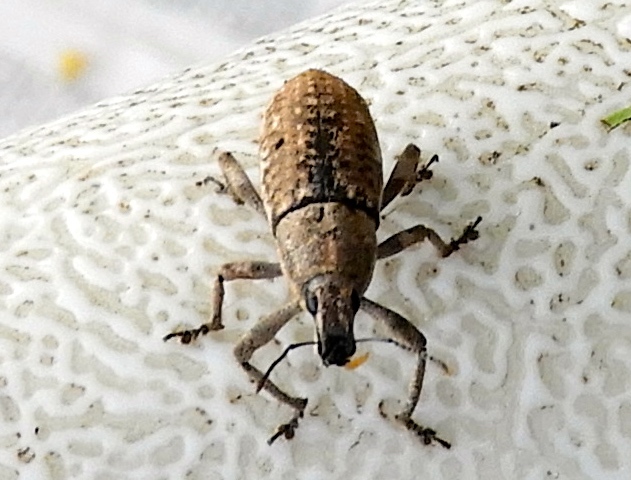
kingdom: Animalia
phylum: Arthropoda
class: Insecta
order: Coleoptera
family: Curculionidae
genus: Epicaerus
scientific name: Epicaerus
